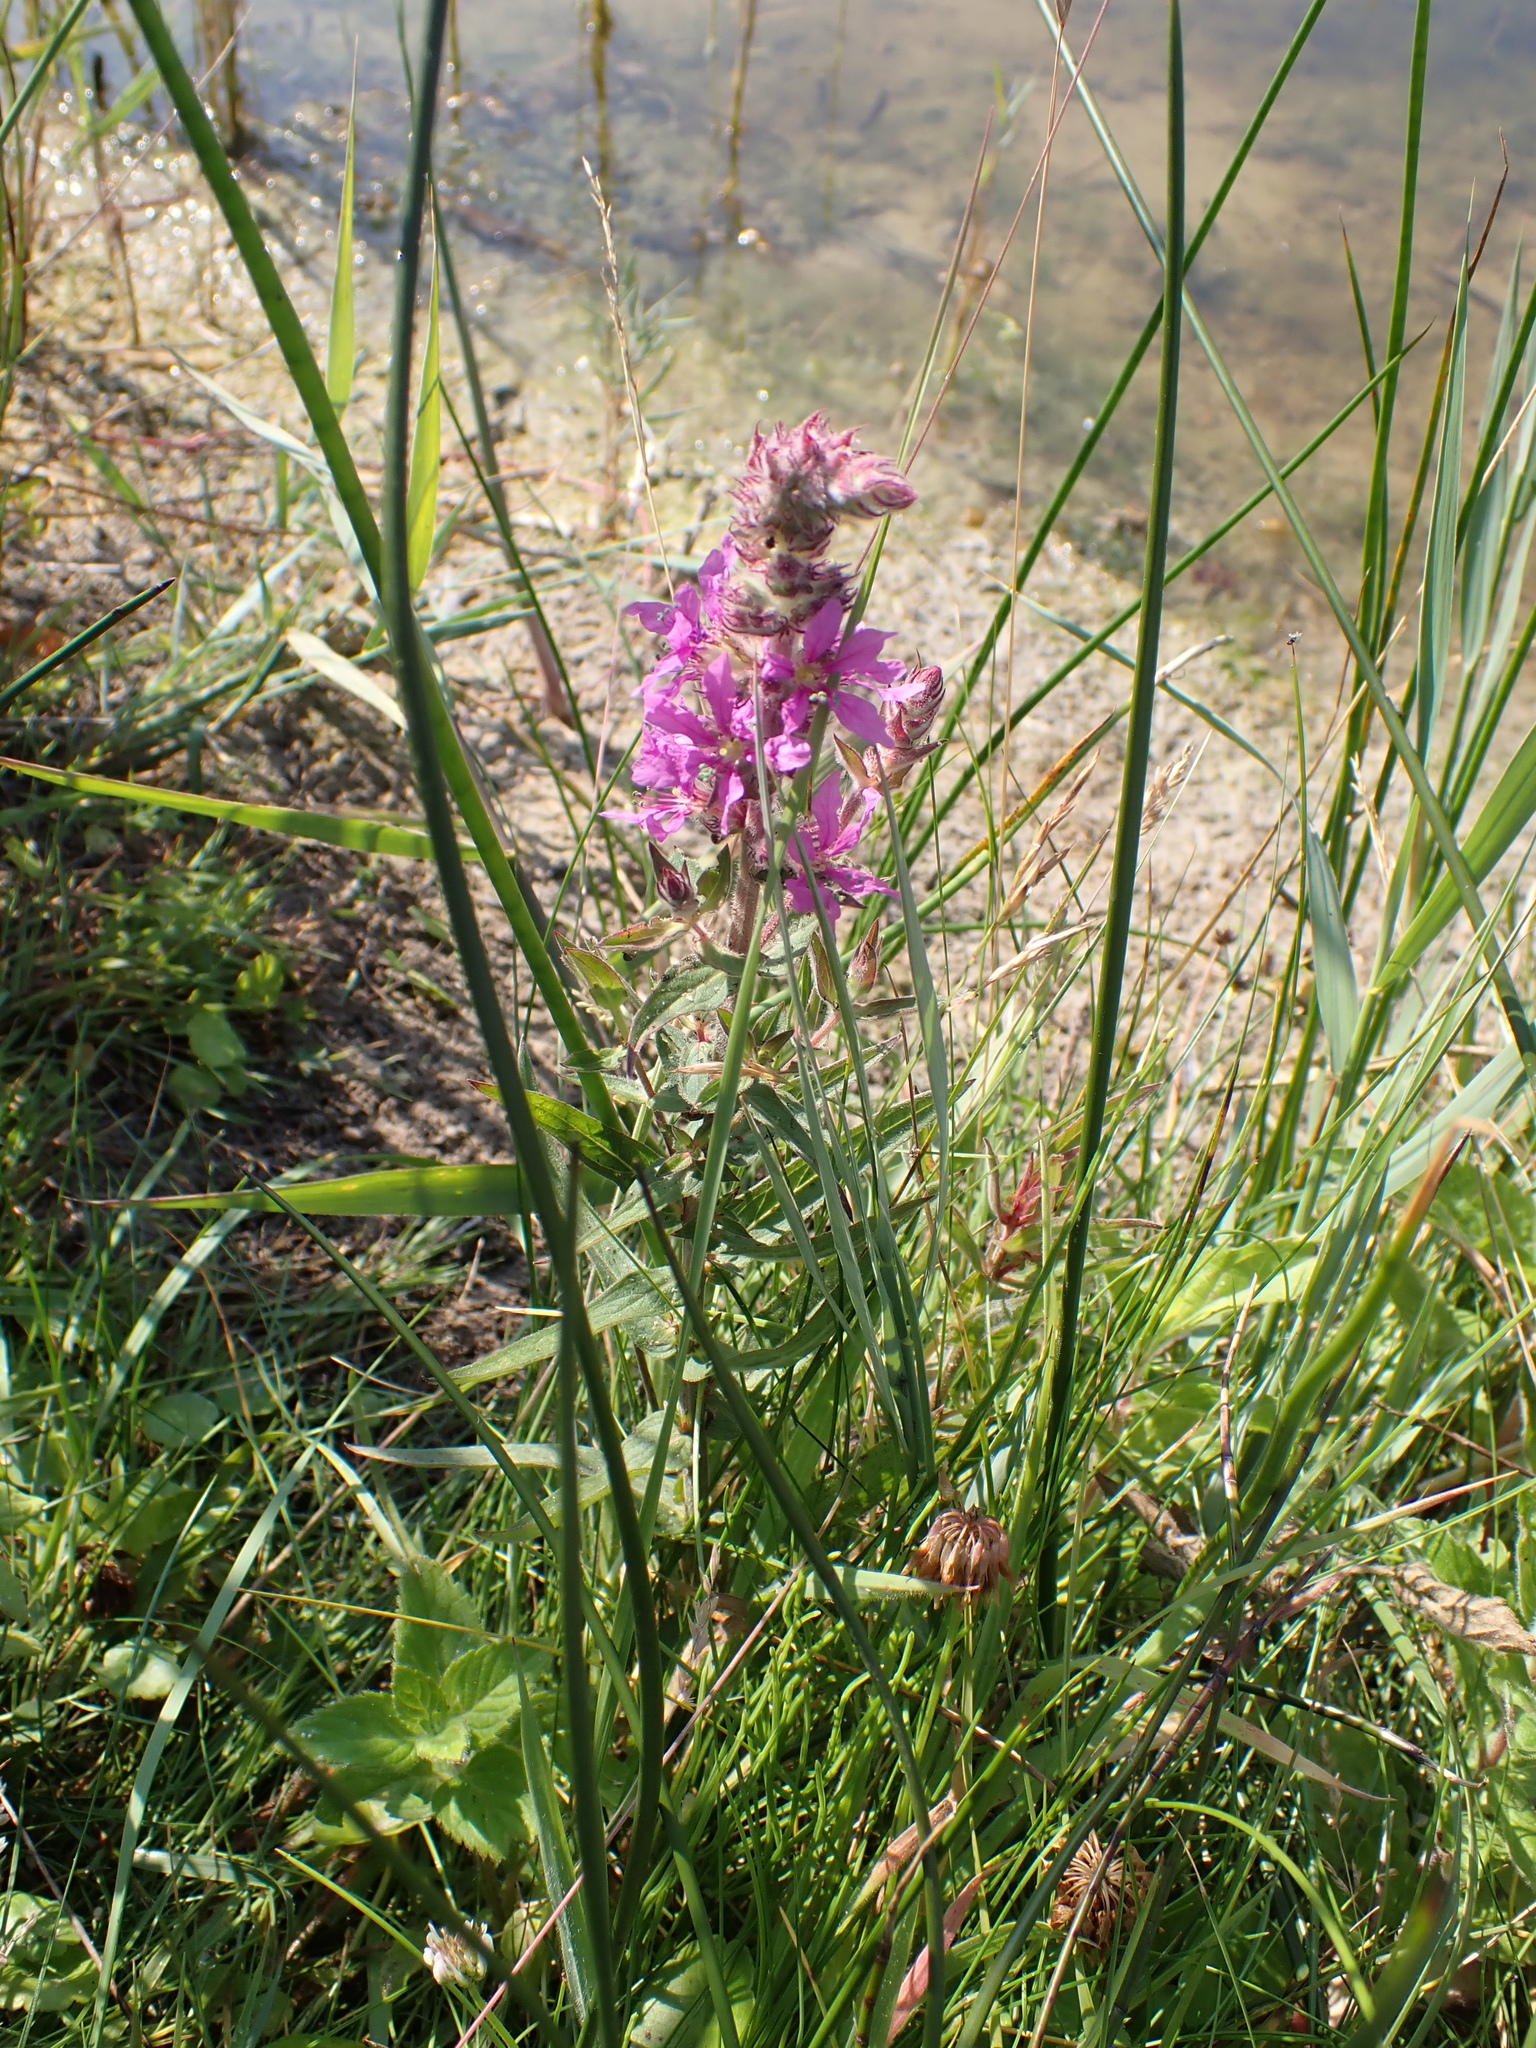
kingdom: Plantae
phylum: Tracheophyta
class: Magnoliopsida
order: Myrtales
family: Lythraceae
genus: Lythrum
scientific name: Lythrum salicaria
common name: Purple loosestrife
